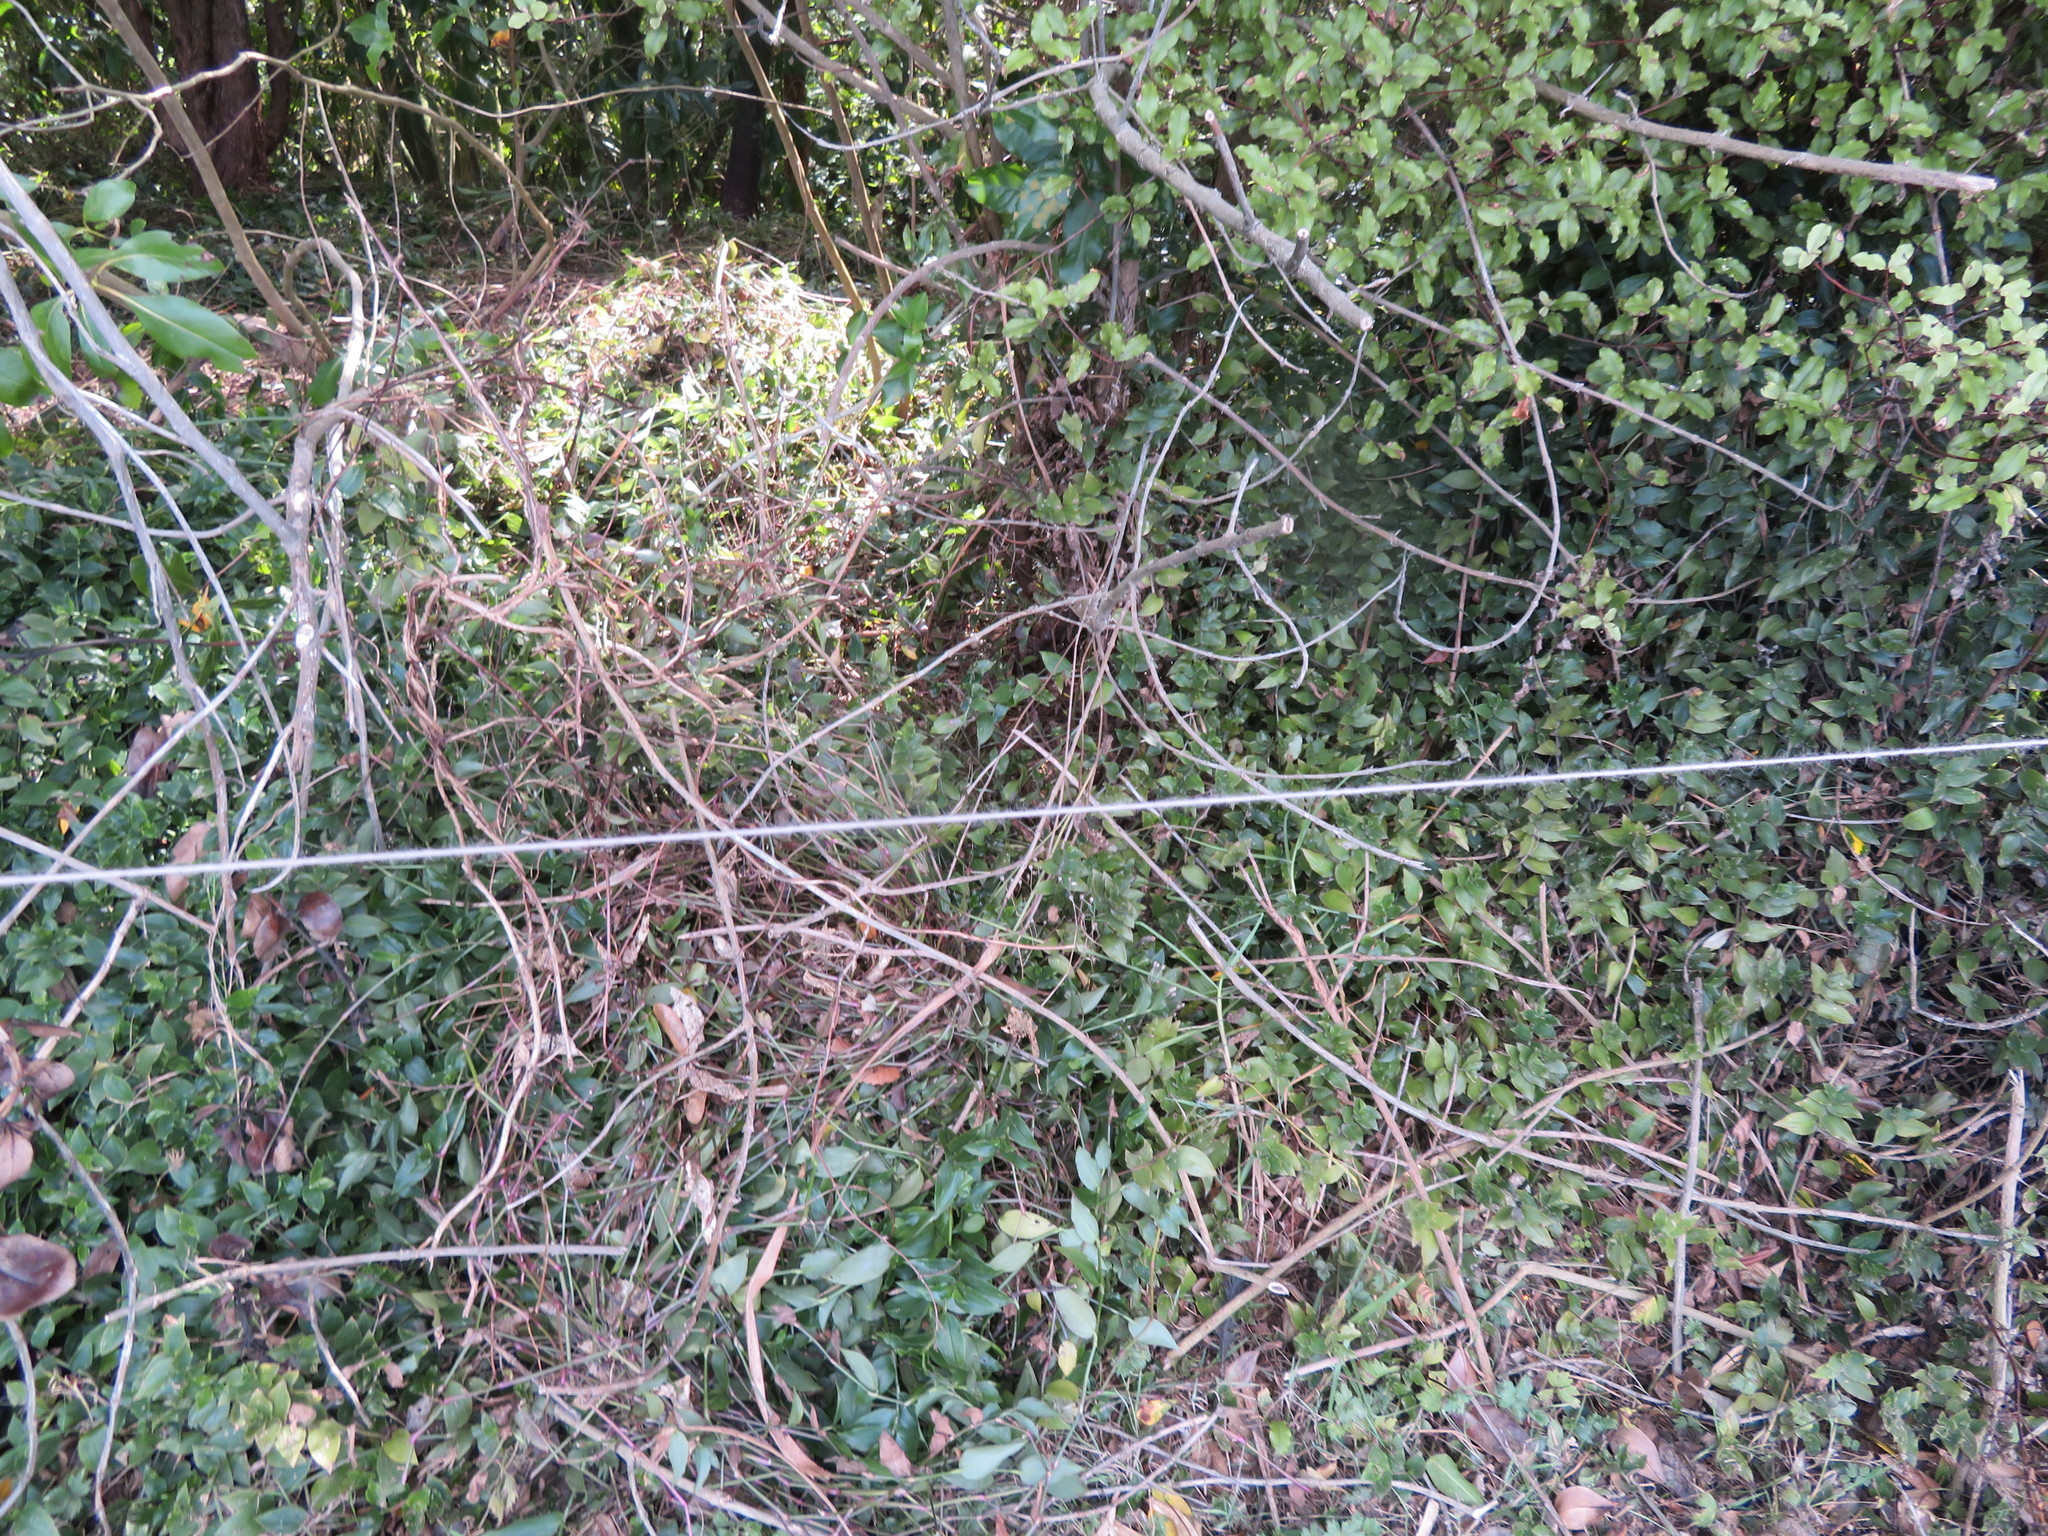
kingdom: Plantae
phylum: Tracheophyta
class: Liliopsida
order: Commelinales
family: Commelinaceae
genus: Tradescantia
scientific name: Tradescantia fluminensis
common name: Wandering-jew
